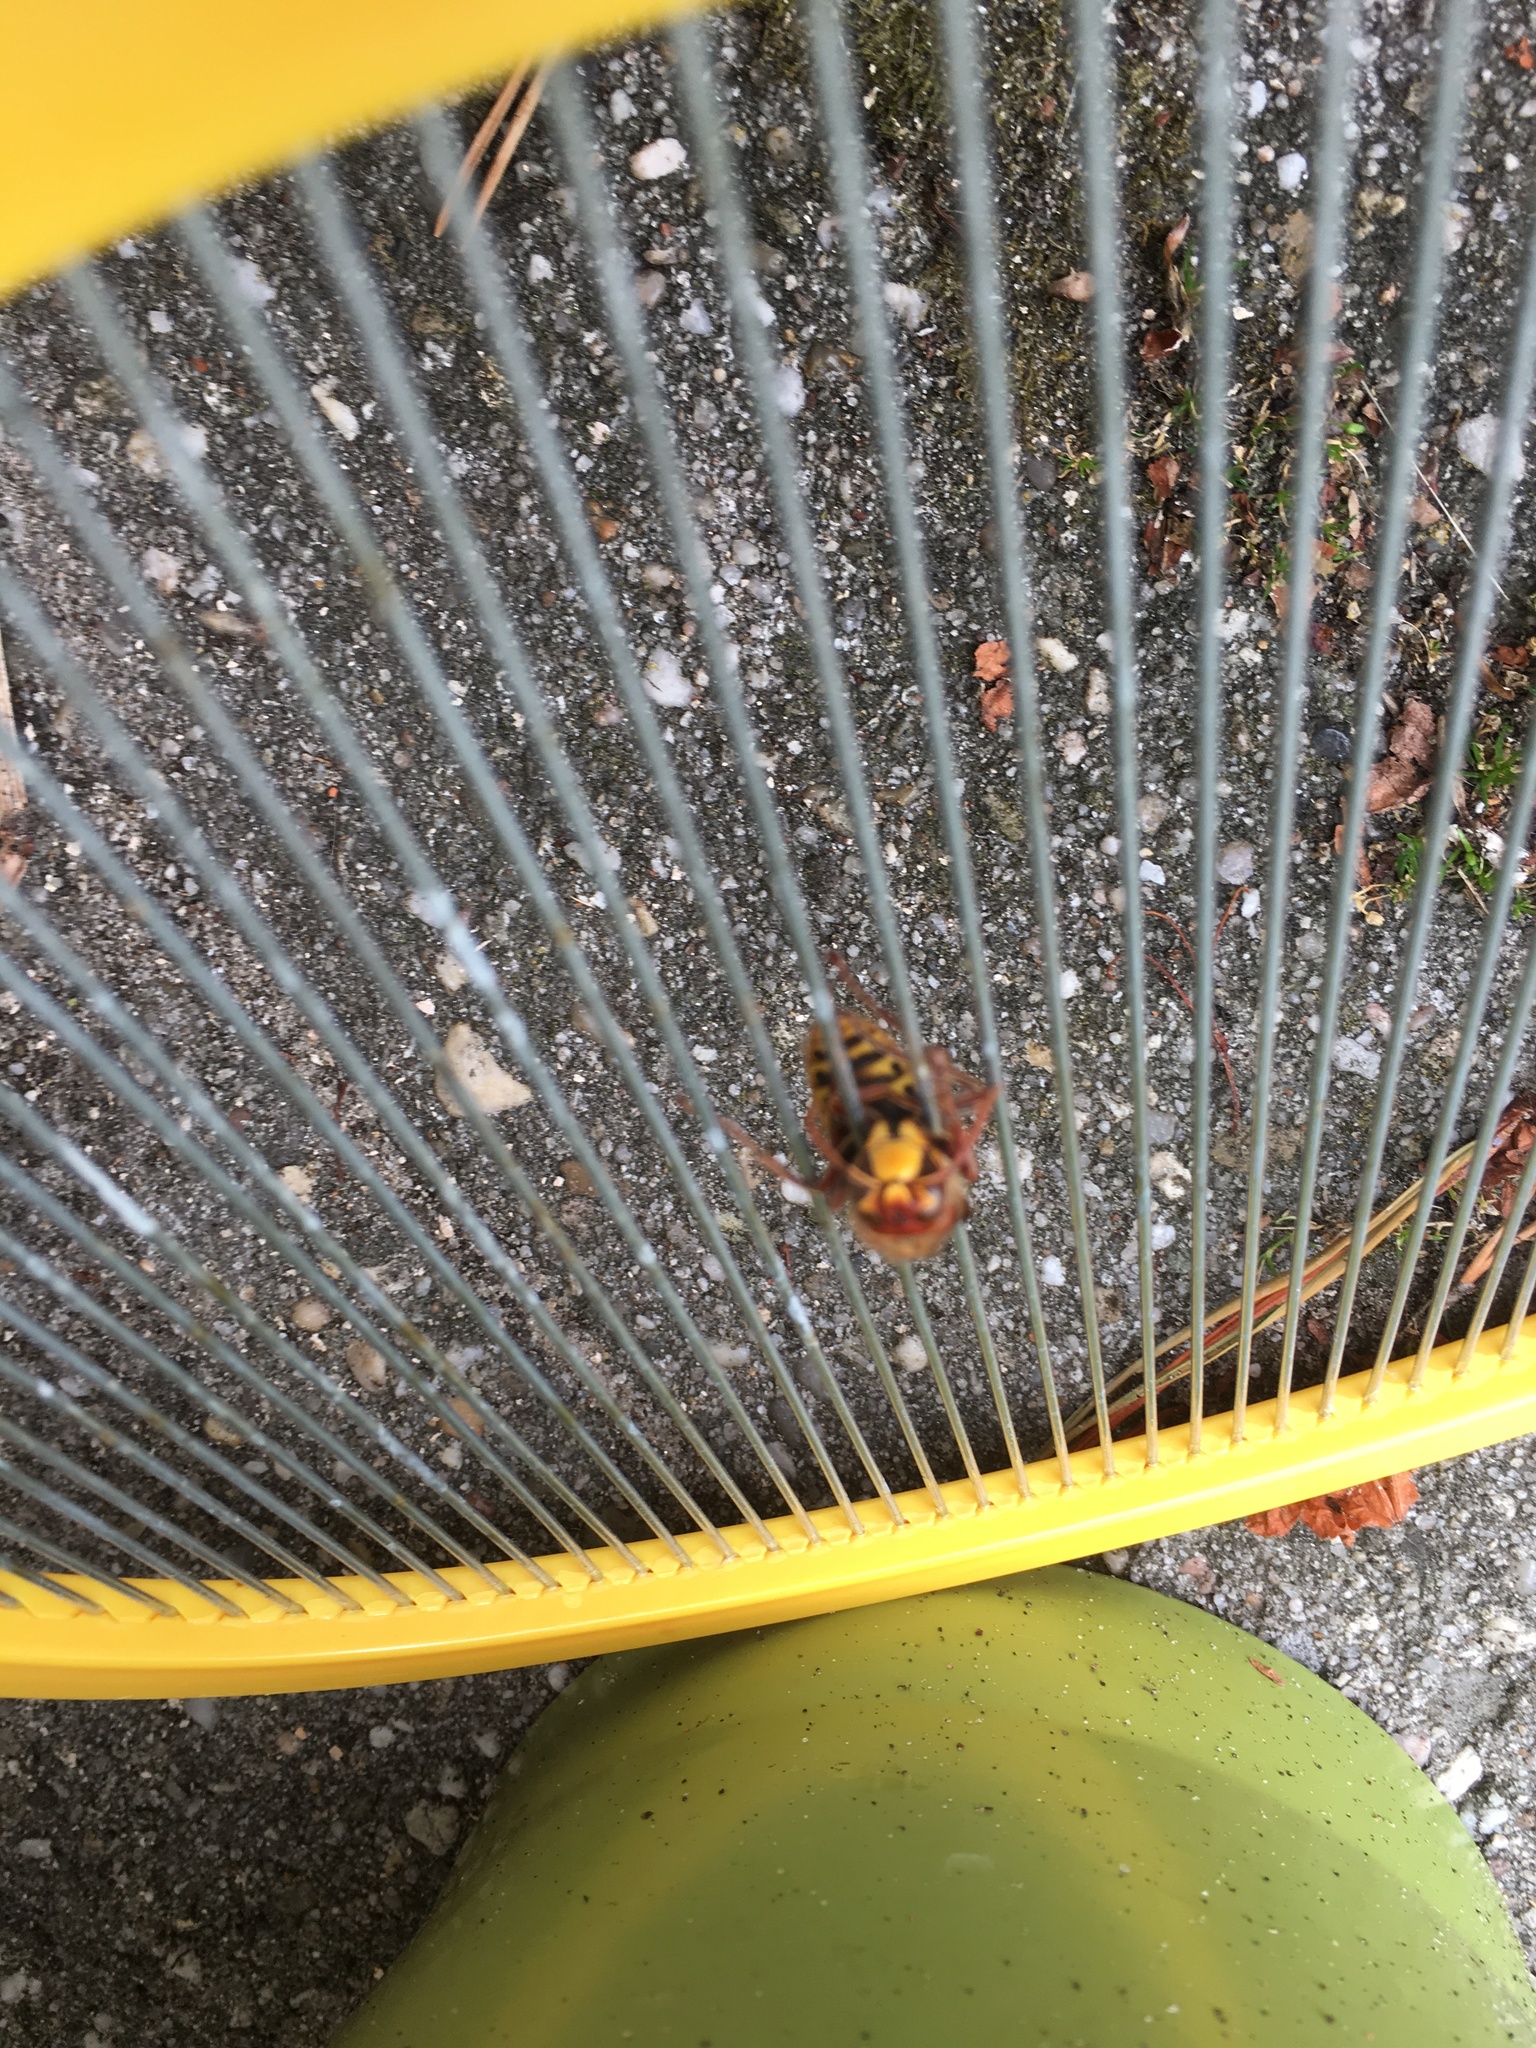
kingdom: Animalia
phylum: Arthropoda
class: Insecta
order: Hymenoptera
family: Vespidae
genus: Vespa
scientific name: Vespa crabro
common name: Hornet
